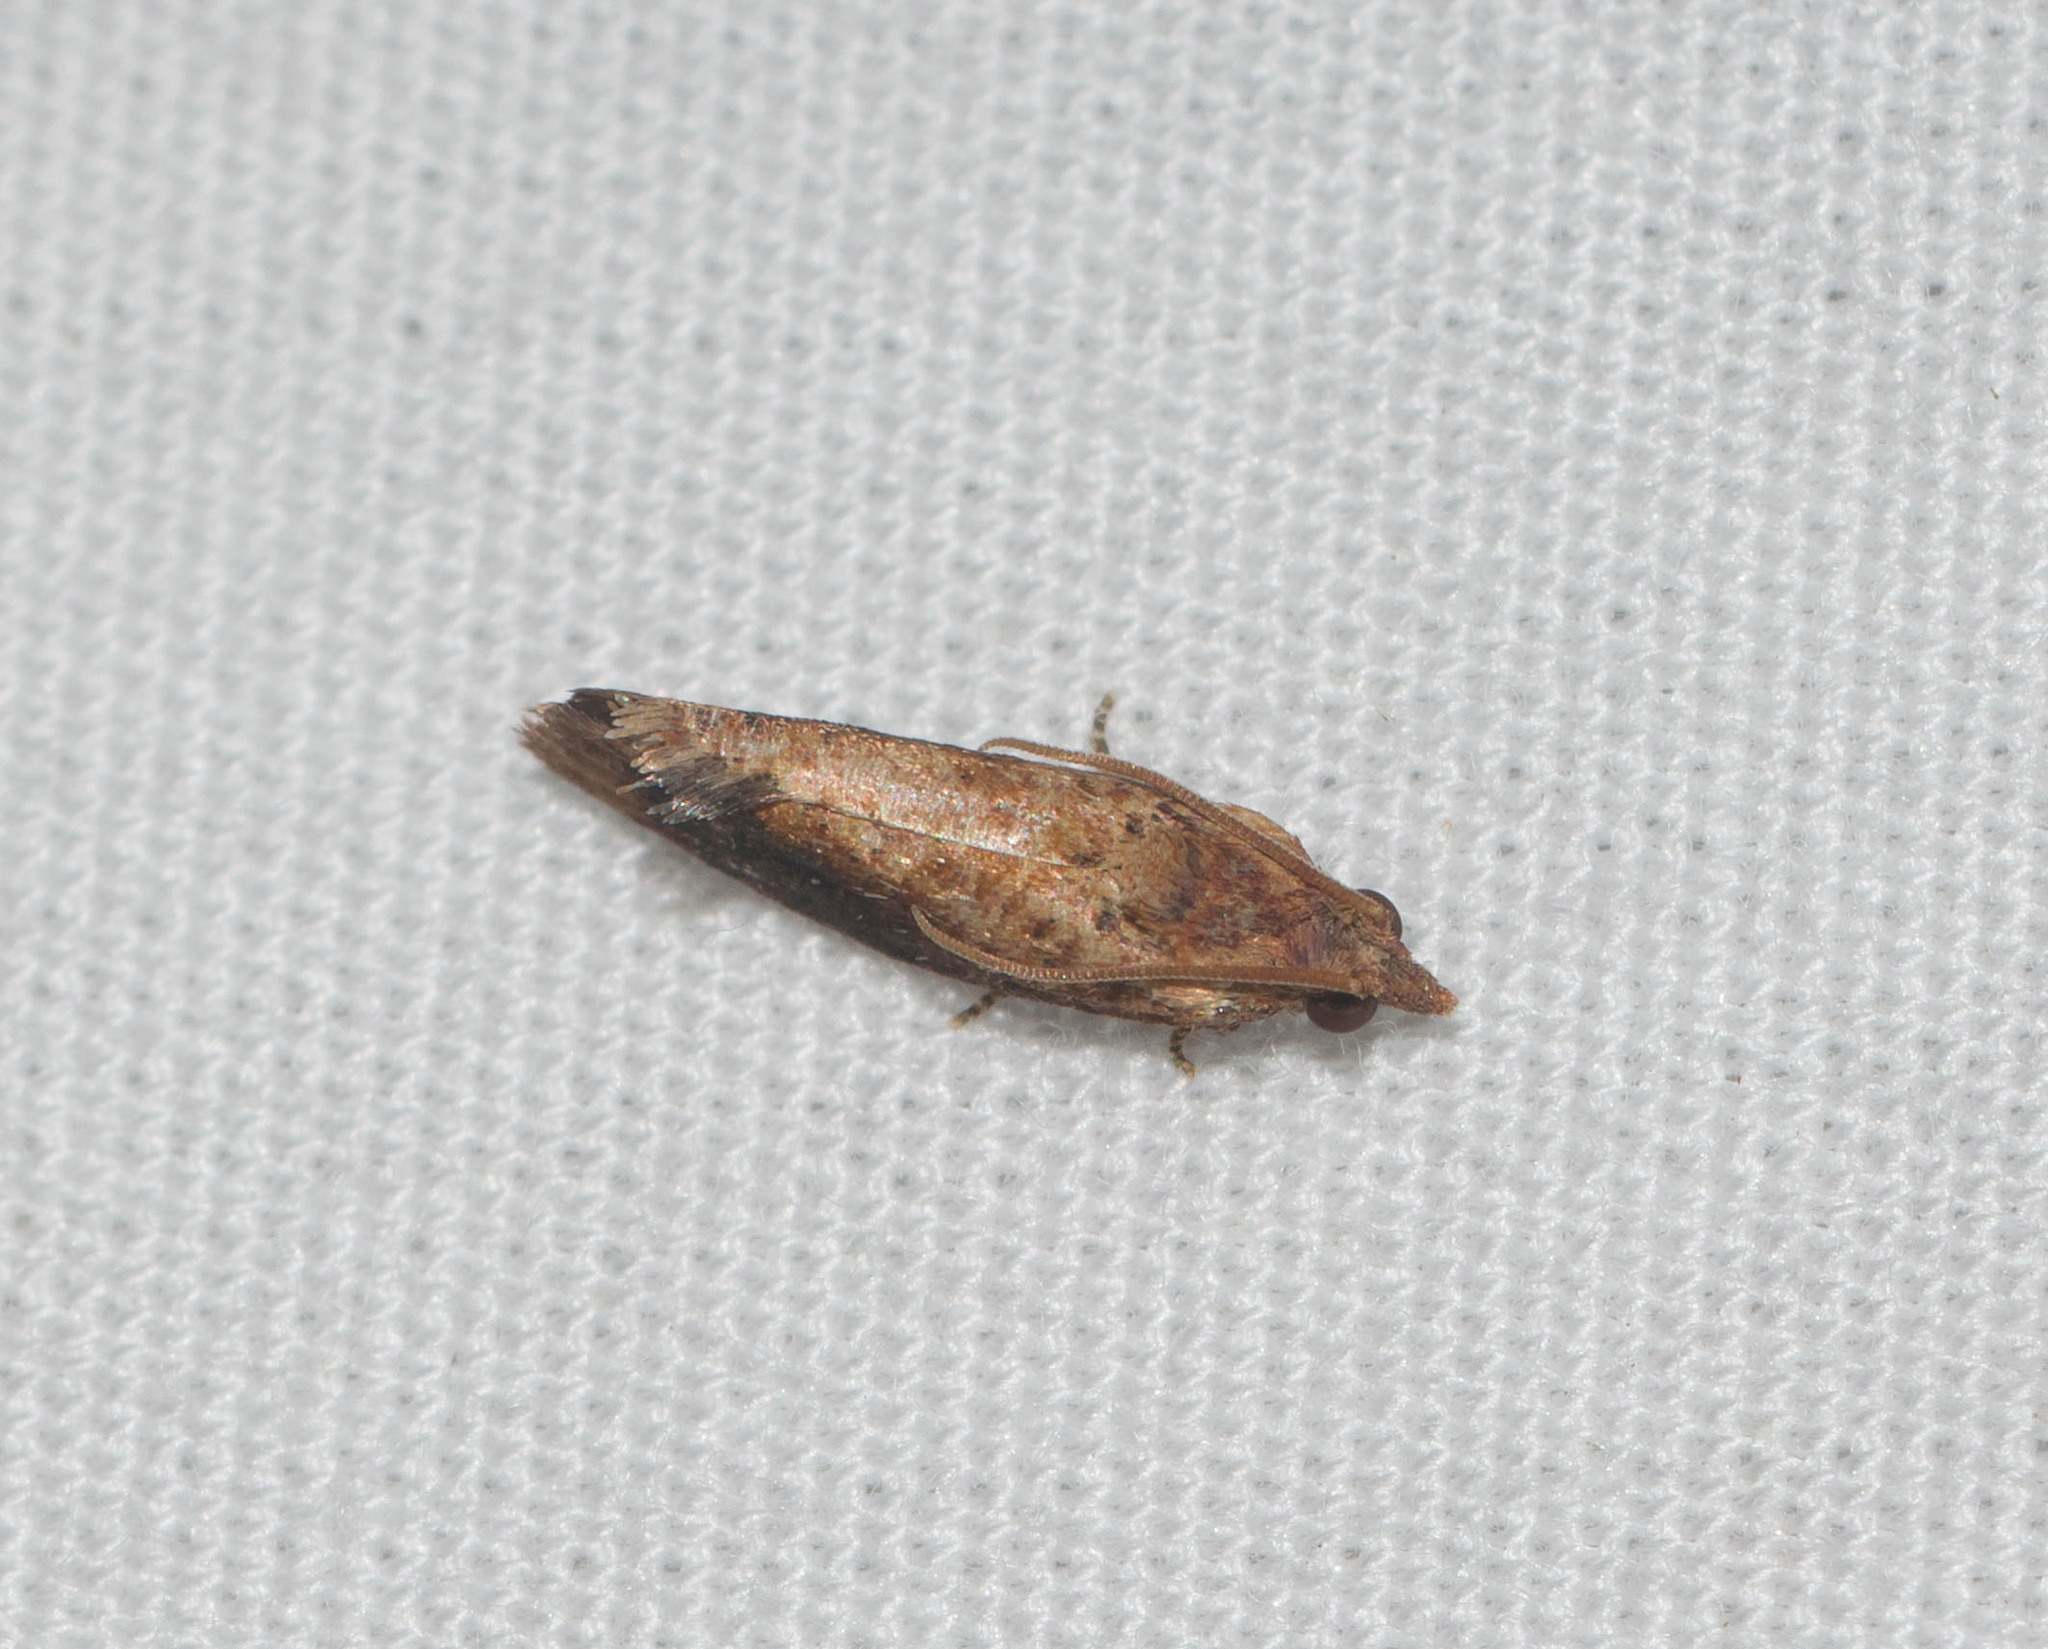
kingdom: Animalia
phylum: Arthropoda
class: Insecta
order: Lepidoptera
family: Tortricidae
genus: Cryptophlebia
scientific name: Cryptophlebia illepida
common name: Moth
